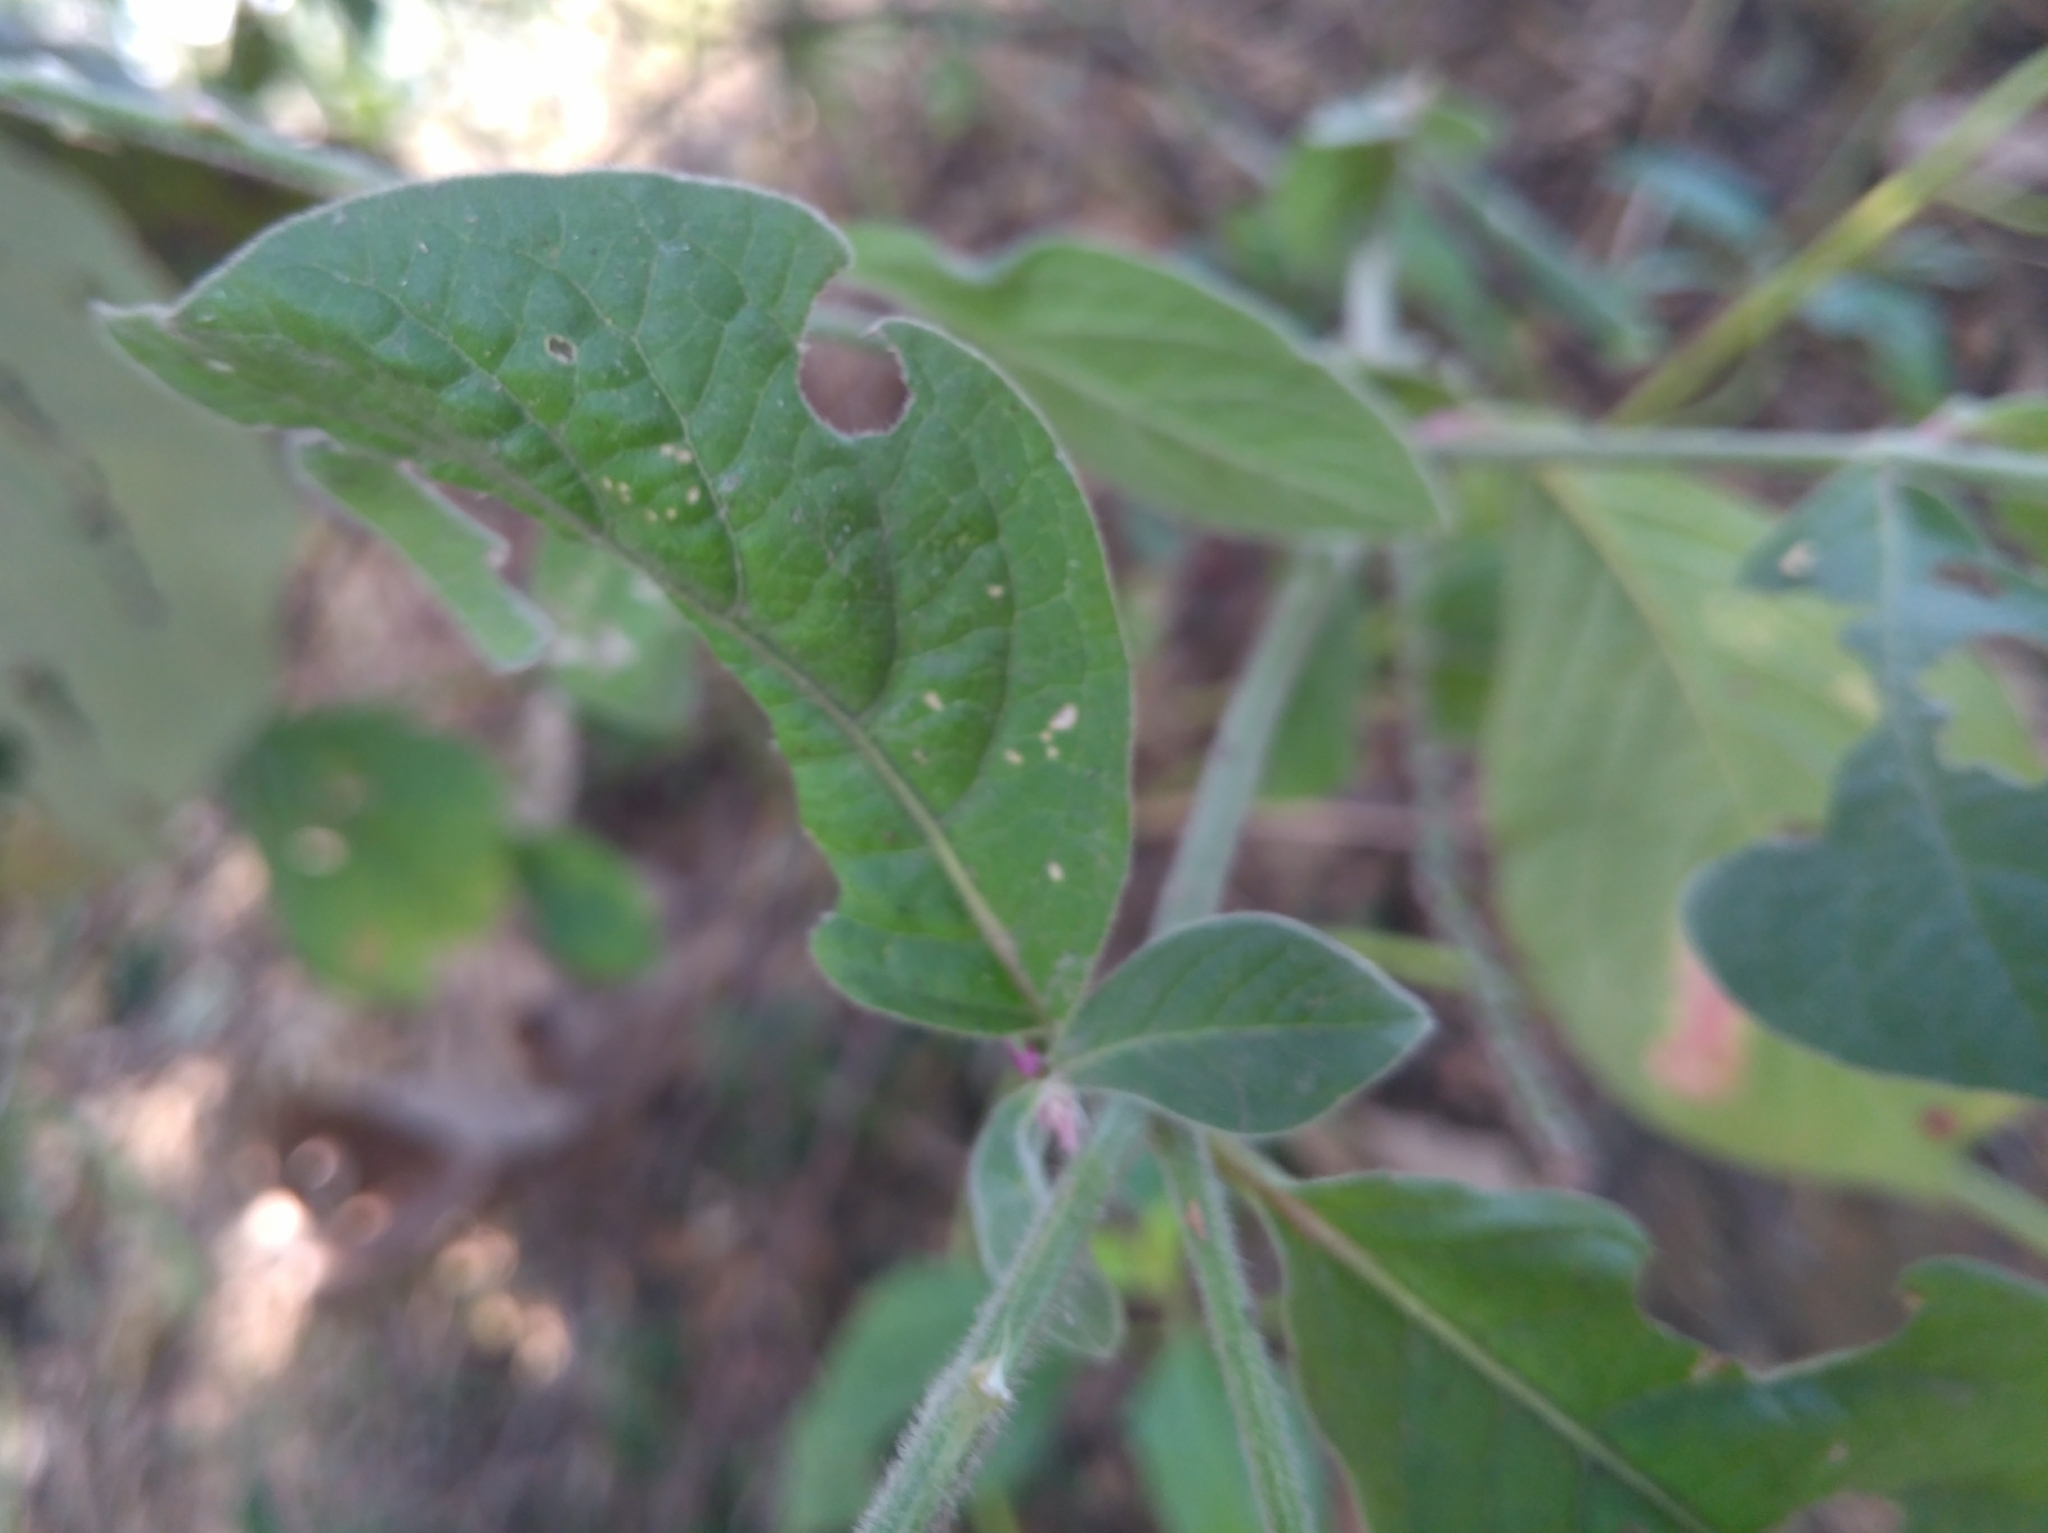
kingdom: Plantae
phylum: Tracheophyta
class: Magnoliopsida
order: Caryophyllales
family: Amaranthaceae
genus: Achyranthes
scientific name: Achyranthes aspera
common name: Devil's horsewhip
